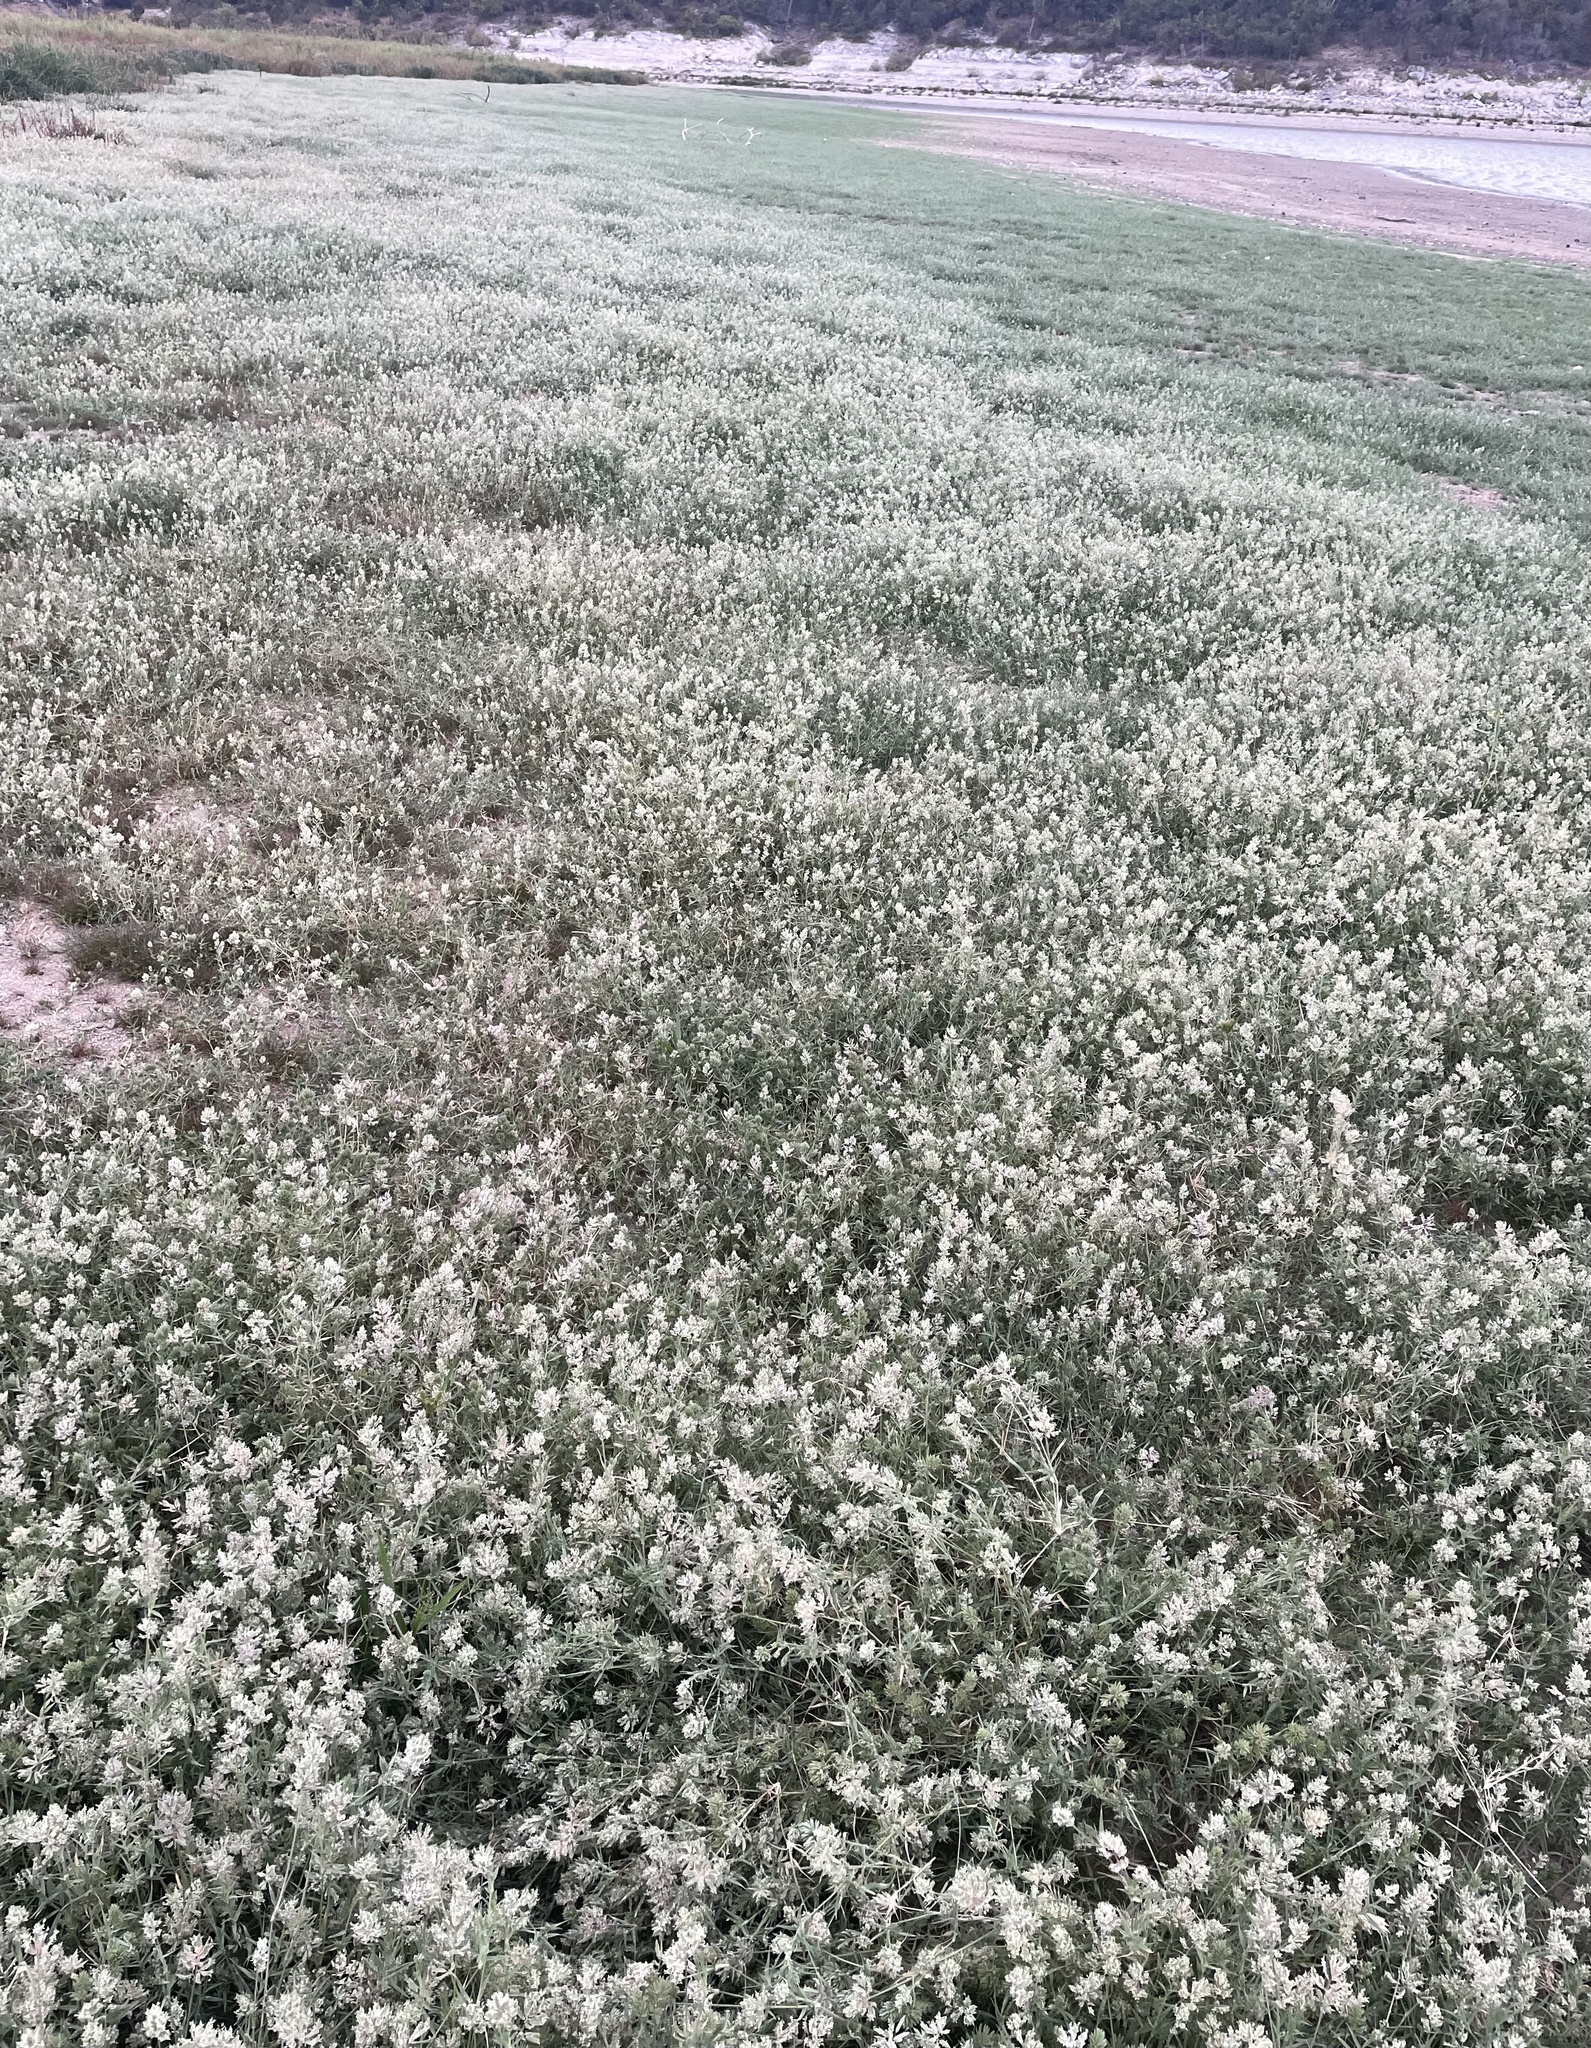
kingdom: Plantae
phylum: Tracheophyta
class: Liliopsida
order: Poales
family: Poaceae
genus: Eragrostis
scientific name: Eragrostis reptans
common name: Creeping love grass
